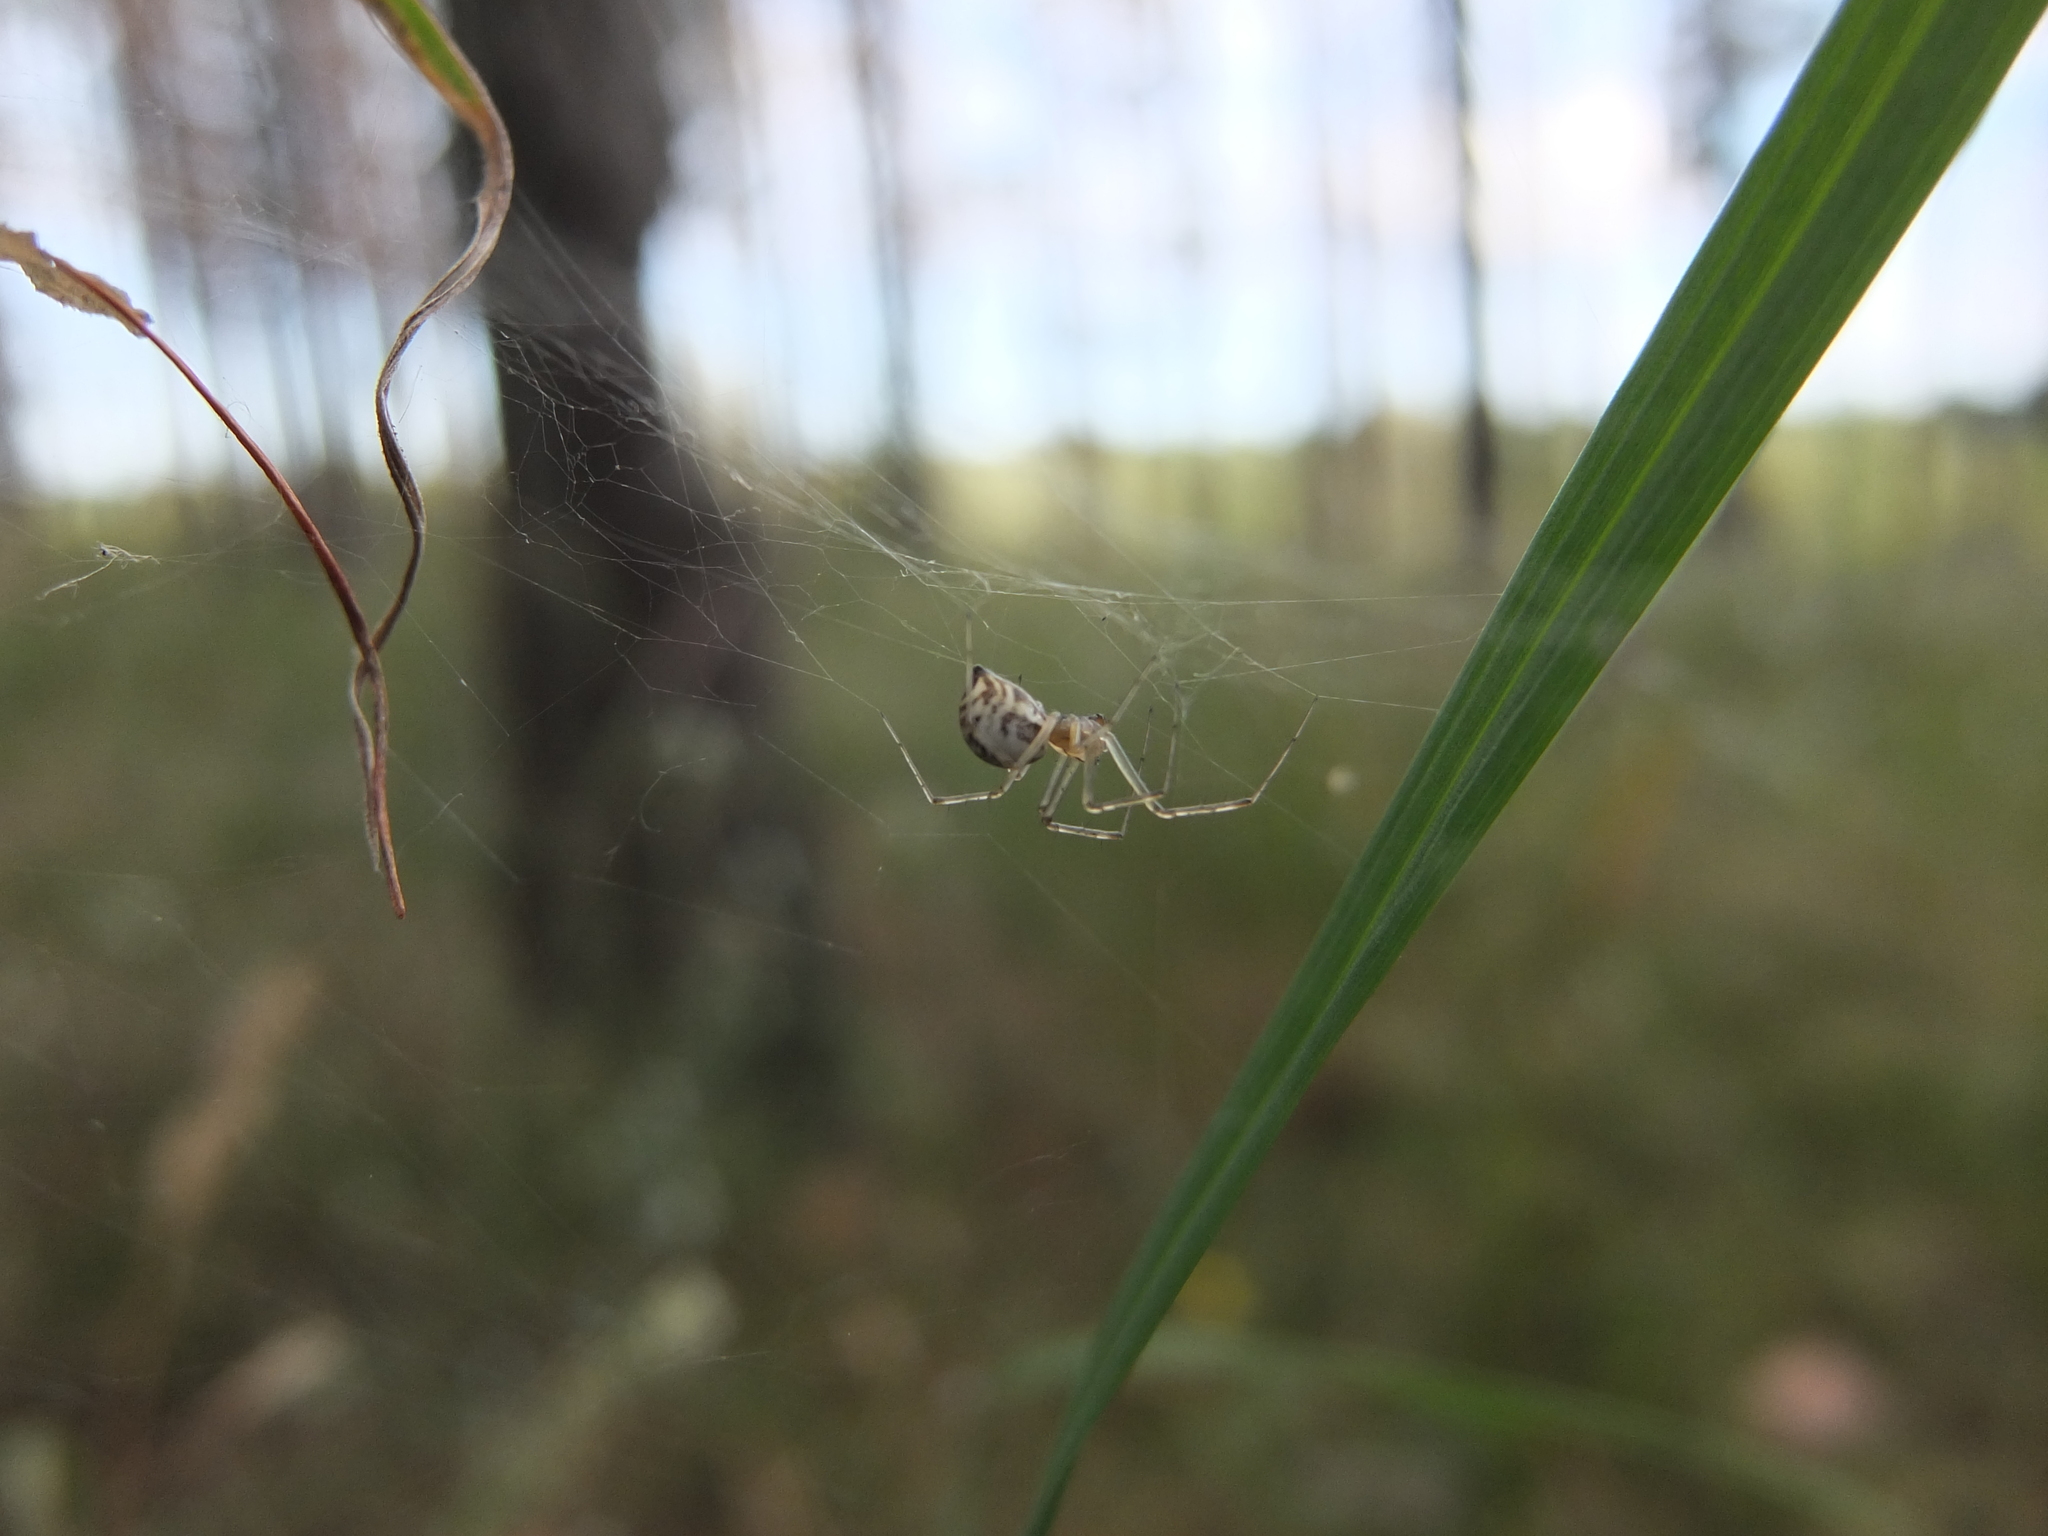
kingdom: Animalia
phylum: Arthropoda
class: Arachnida
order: Araneae
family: Linyphiidae
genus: Linyphia
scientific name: Linyphia triangularis
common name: Money spider
